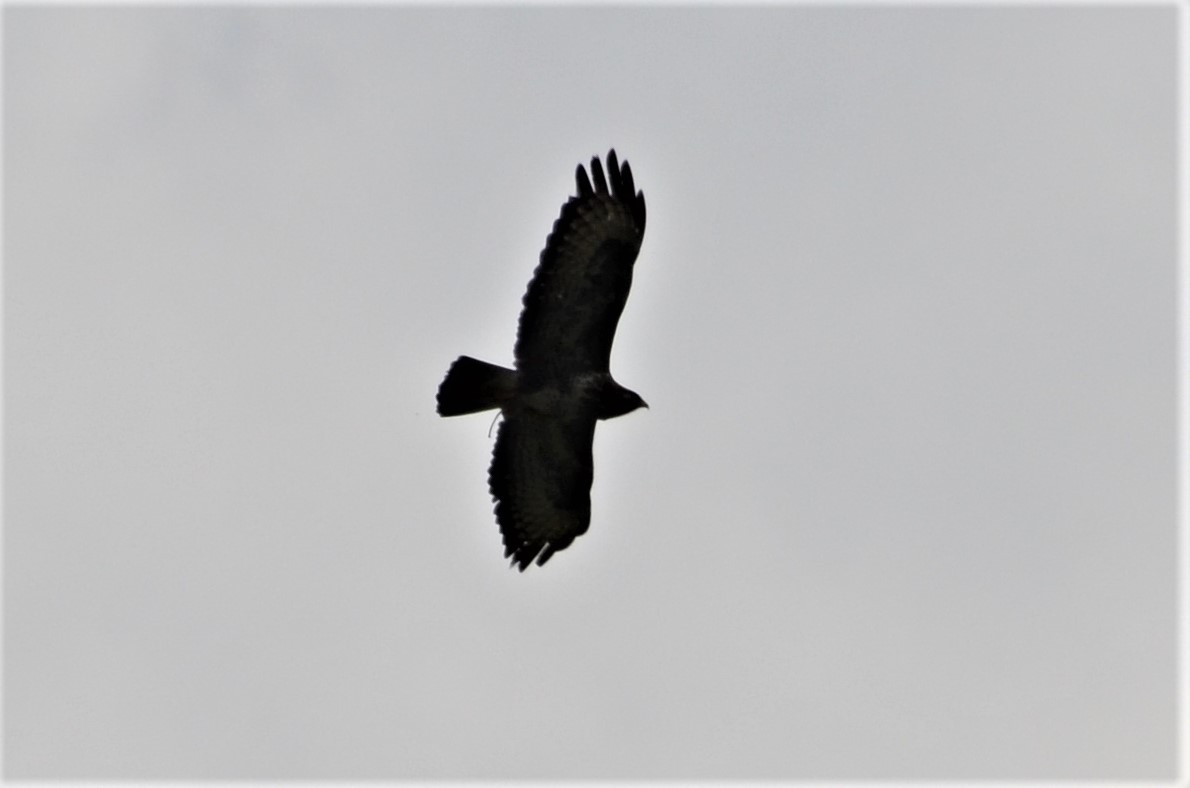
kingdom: Animalia
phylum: Chordata
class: Aves
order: Accipitriformes
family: Accipitridae
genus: Buteo
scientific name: Buteo buteo
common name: Common buzzard
